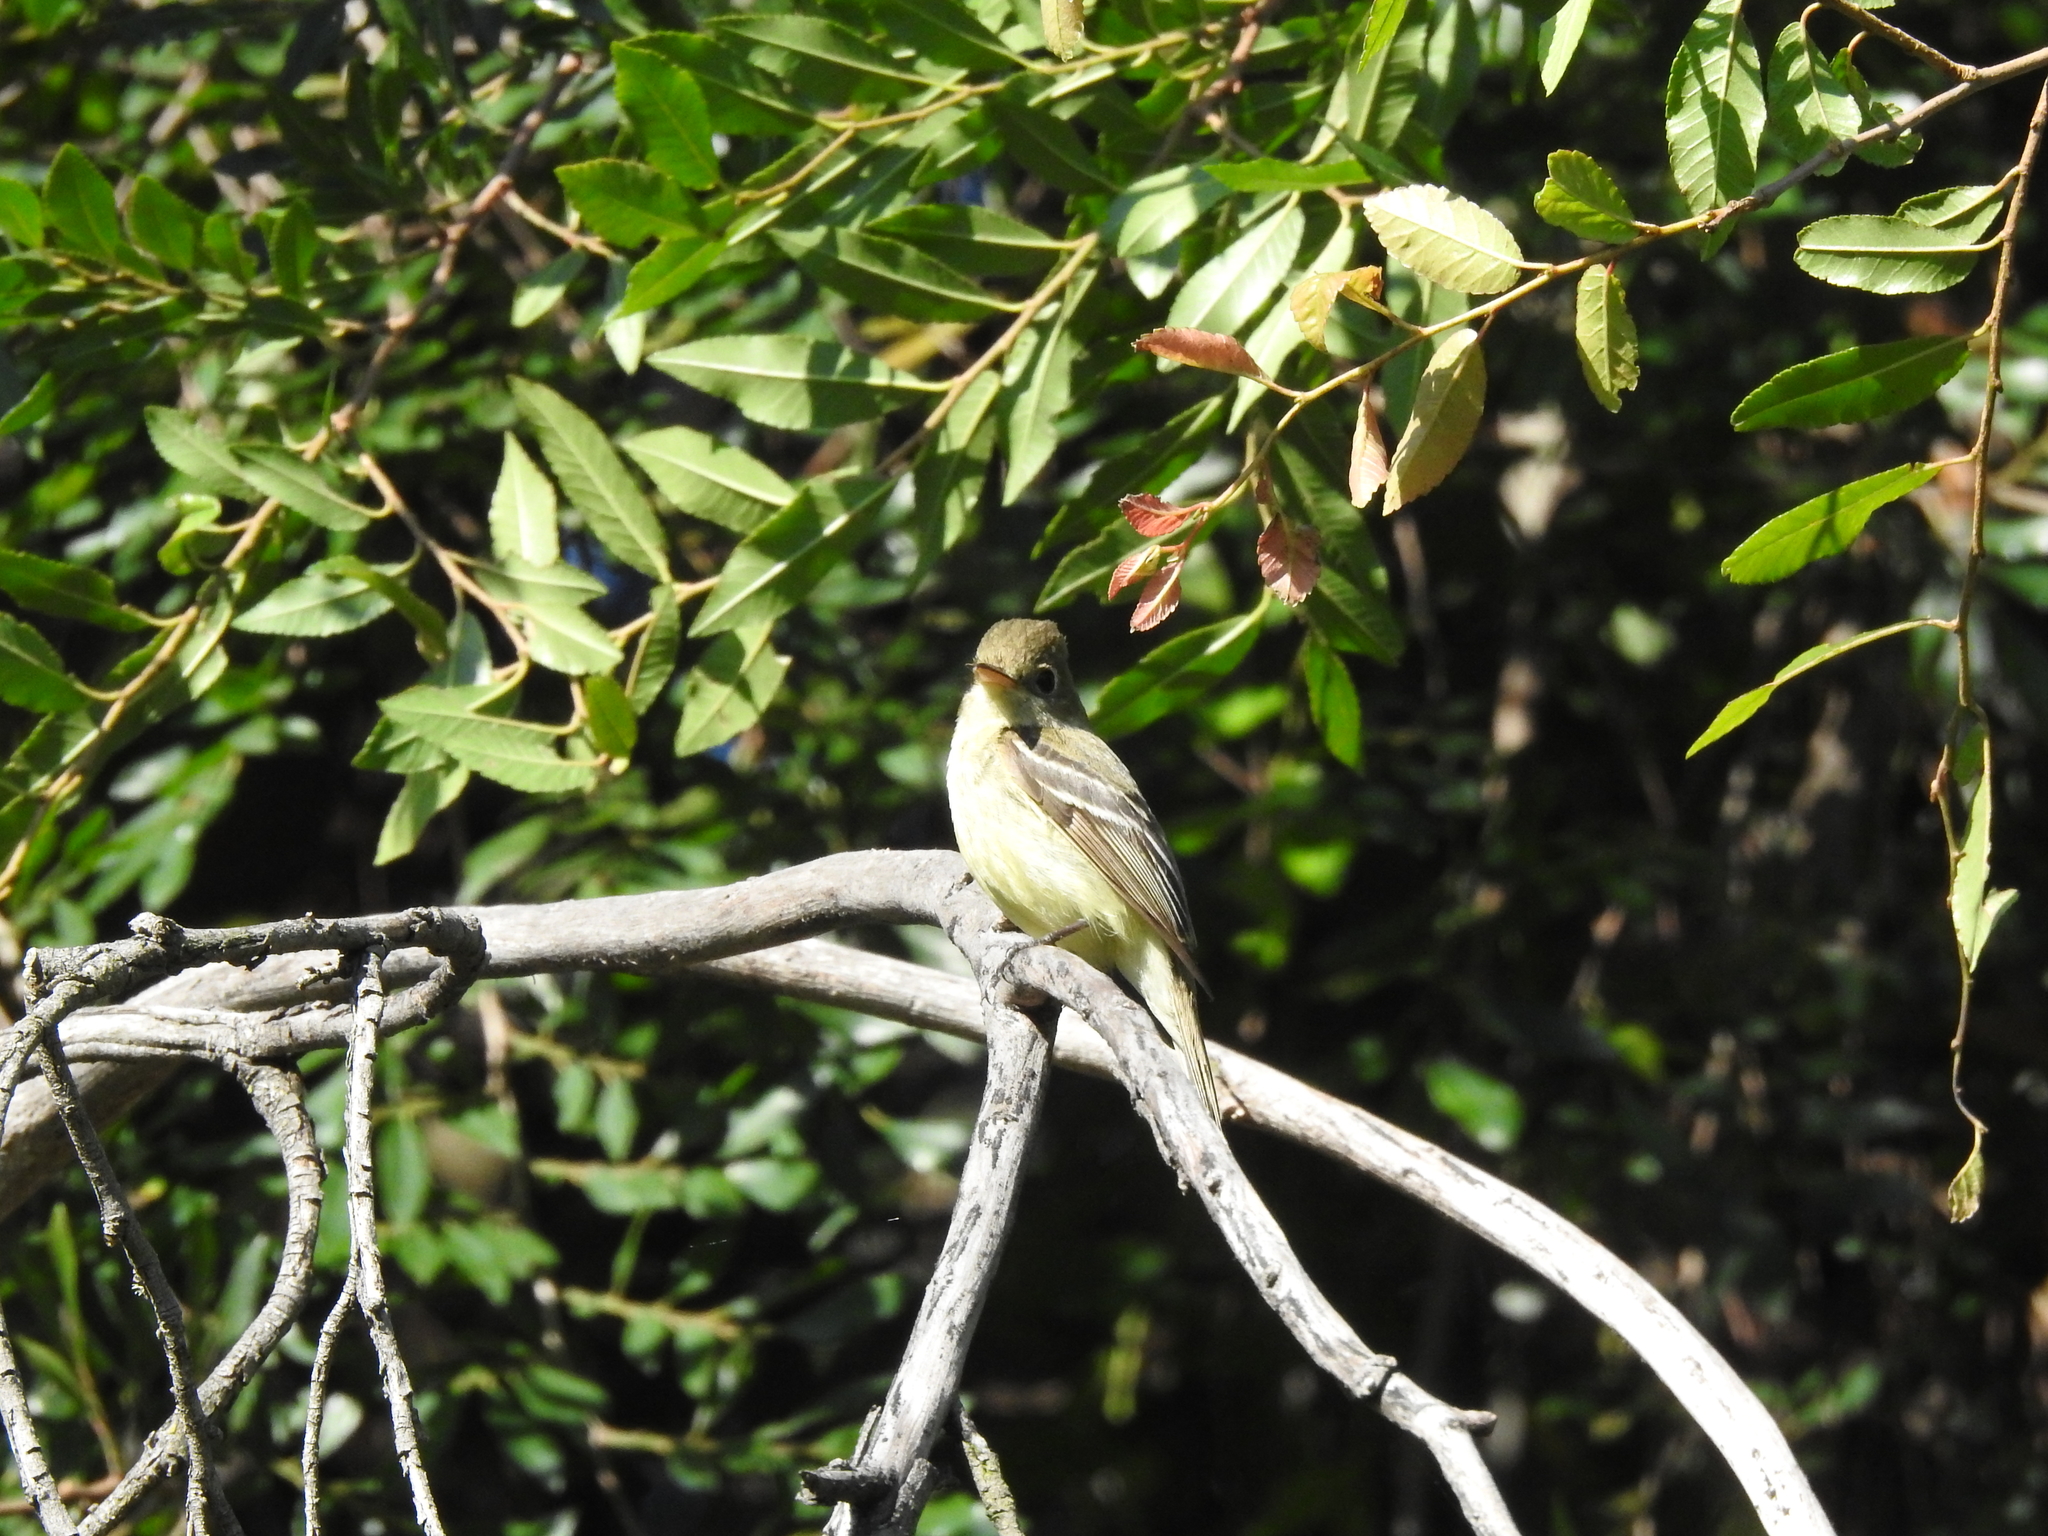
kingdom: Animalia
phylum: Chordata
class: Aves
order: Passeriformes
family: Tyrannidae
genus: Empidonax
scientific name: Empidonax difficilis
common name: Pacific-slope flycatcher
